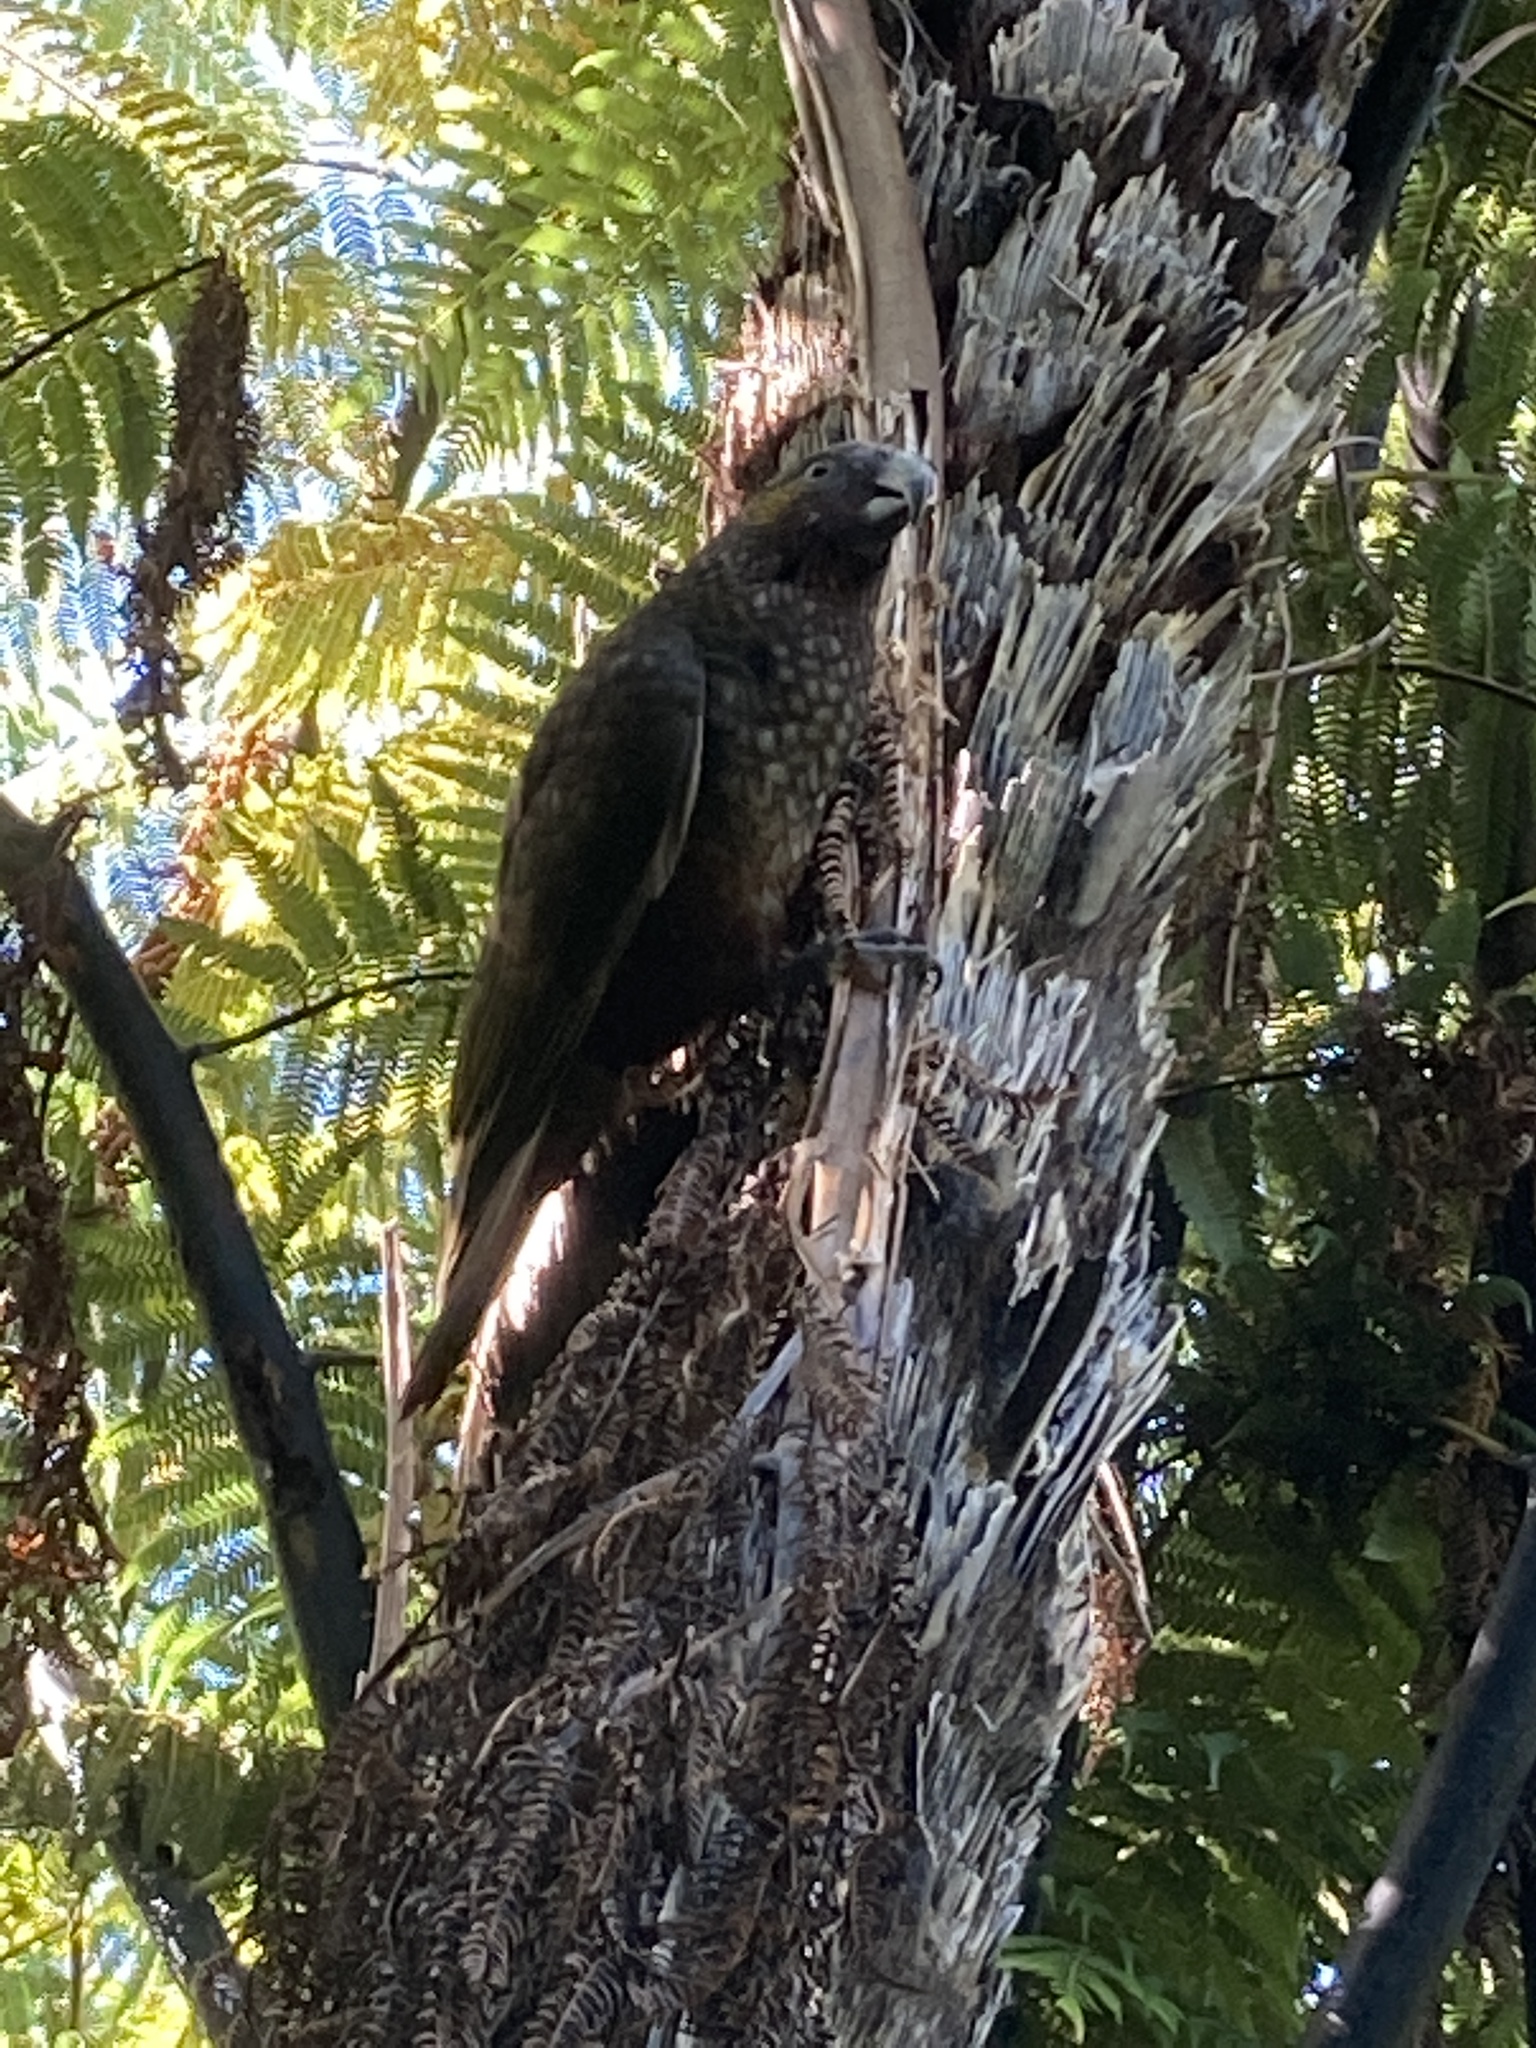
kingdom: Animalia
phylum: Chordata
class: Aves
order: Psittaciformes
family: Psittacidae
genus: Nestor
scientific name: Nestor meridionalis
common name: New zealand kaka
